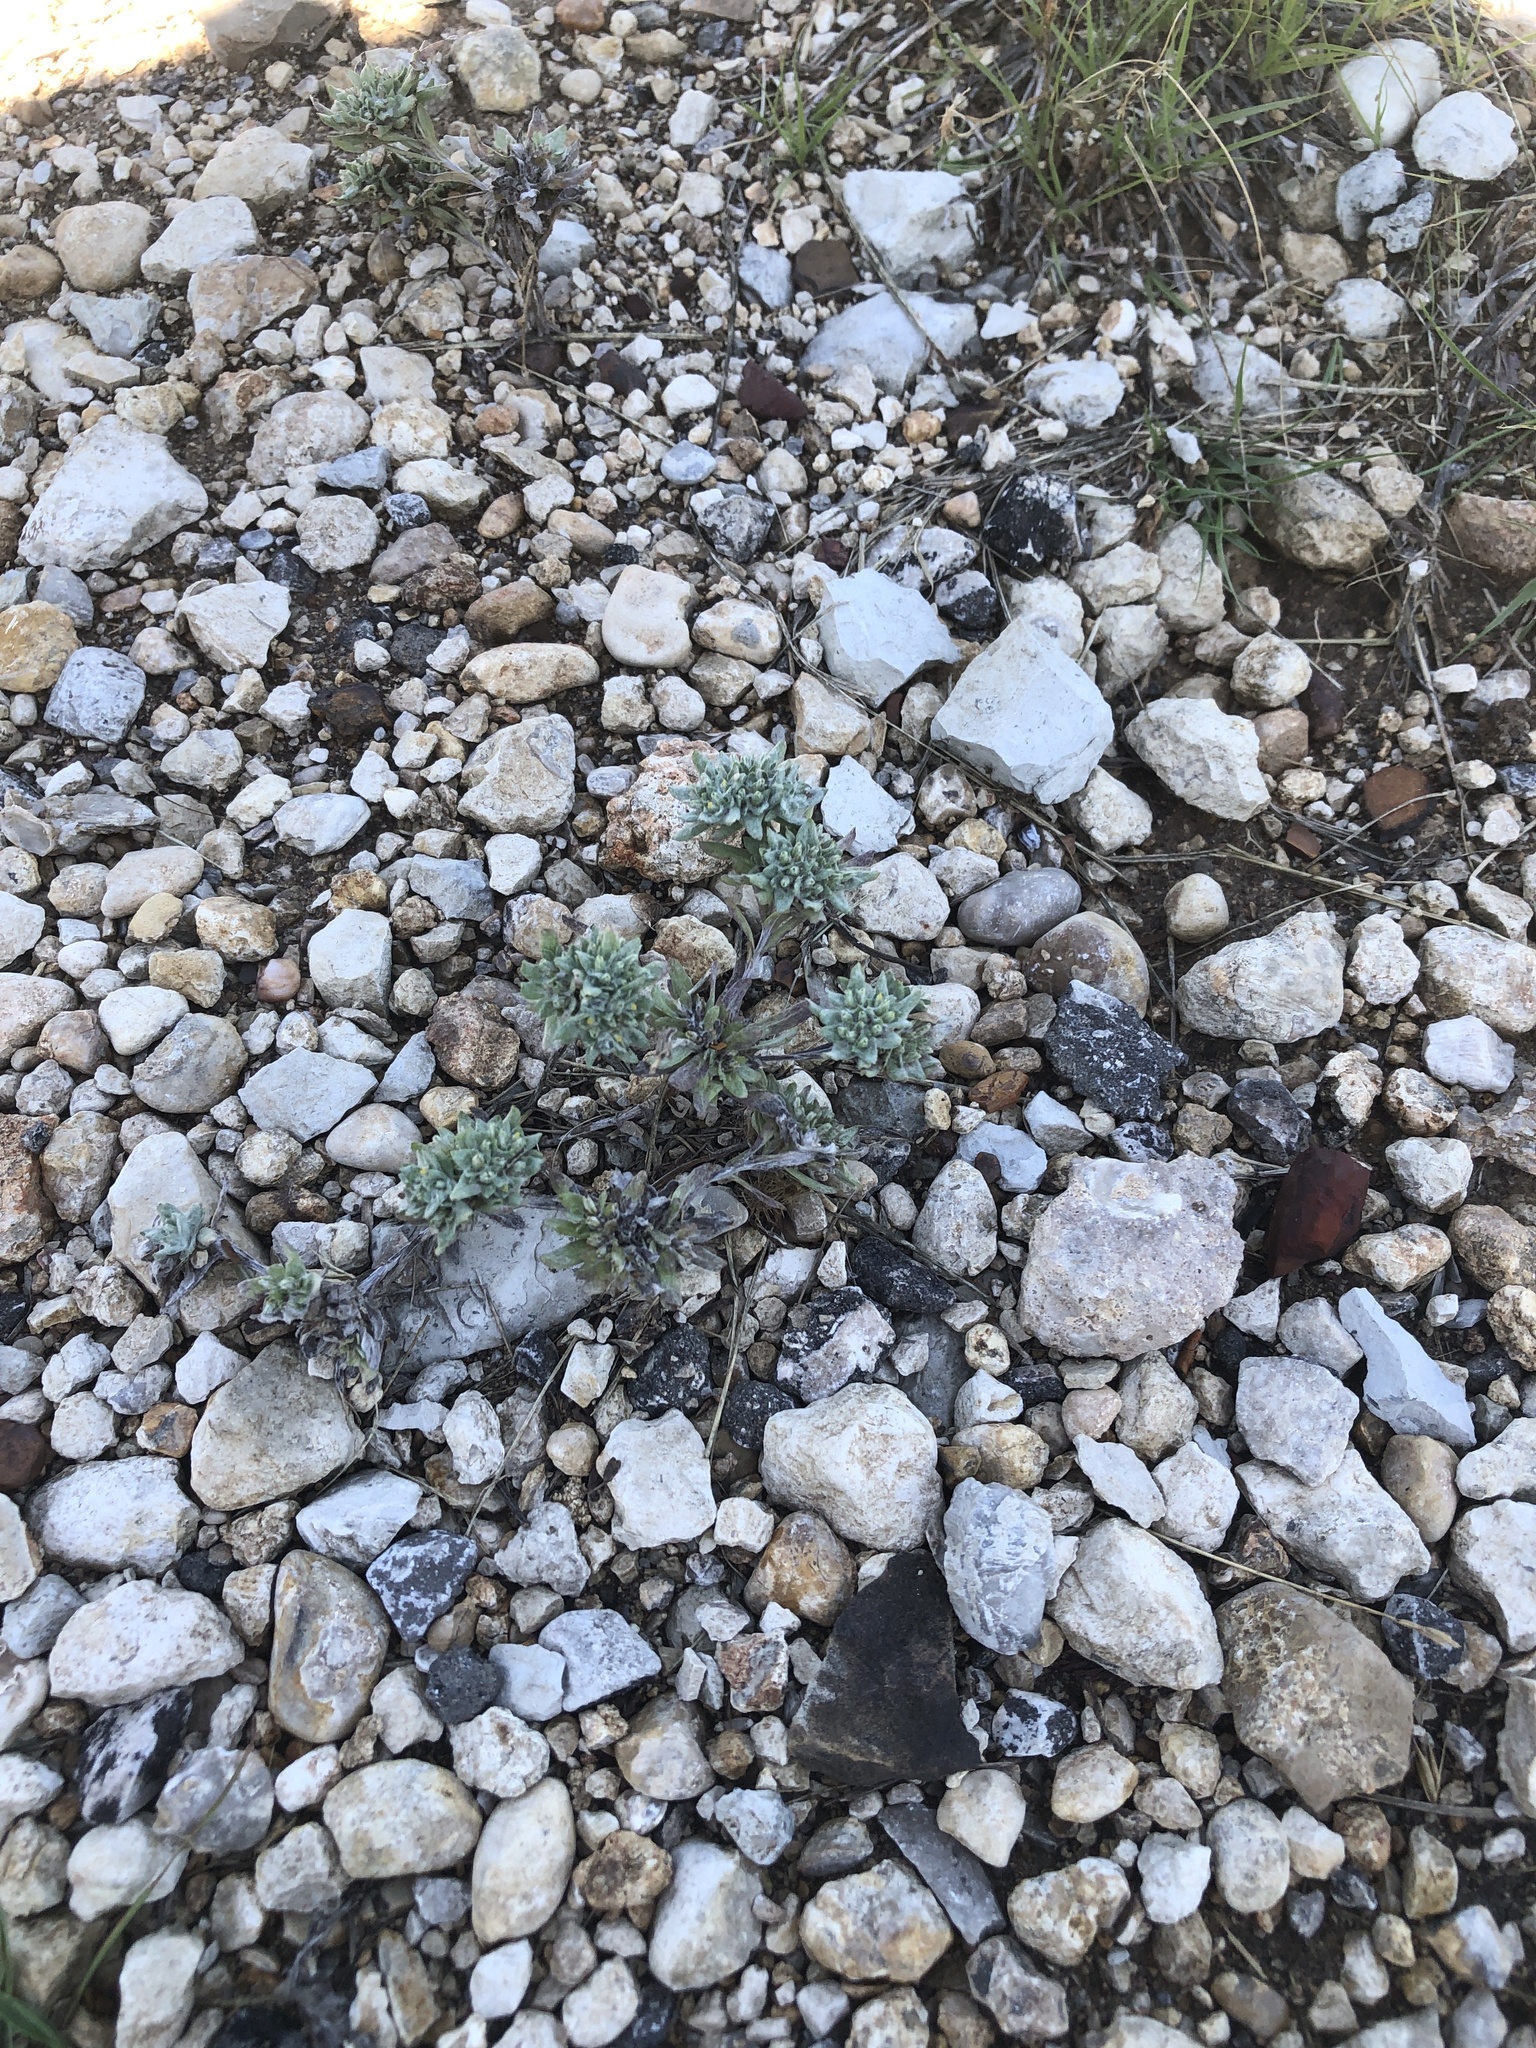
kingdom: Plantae
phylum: Tracheophyta
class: Magnoliopsida
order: Asterales
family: Asteraceae
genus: Diaperia
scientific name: Diaperia prolifera
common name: Big-head rabbit-tobacco
